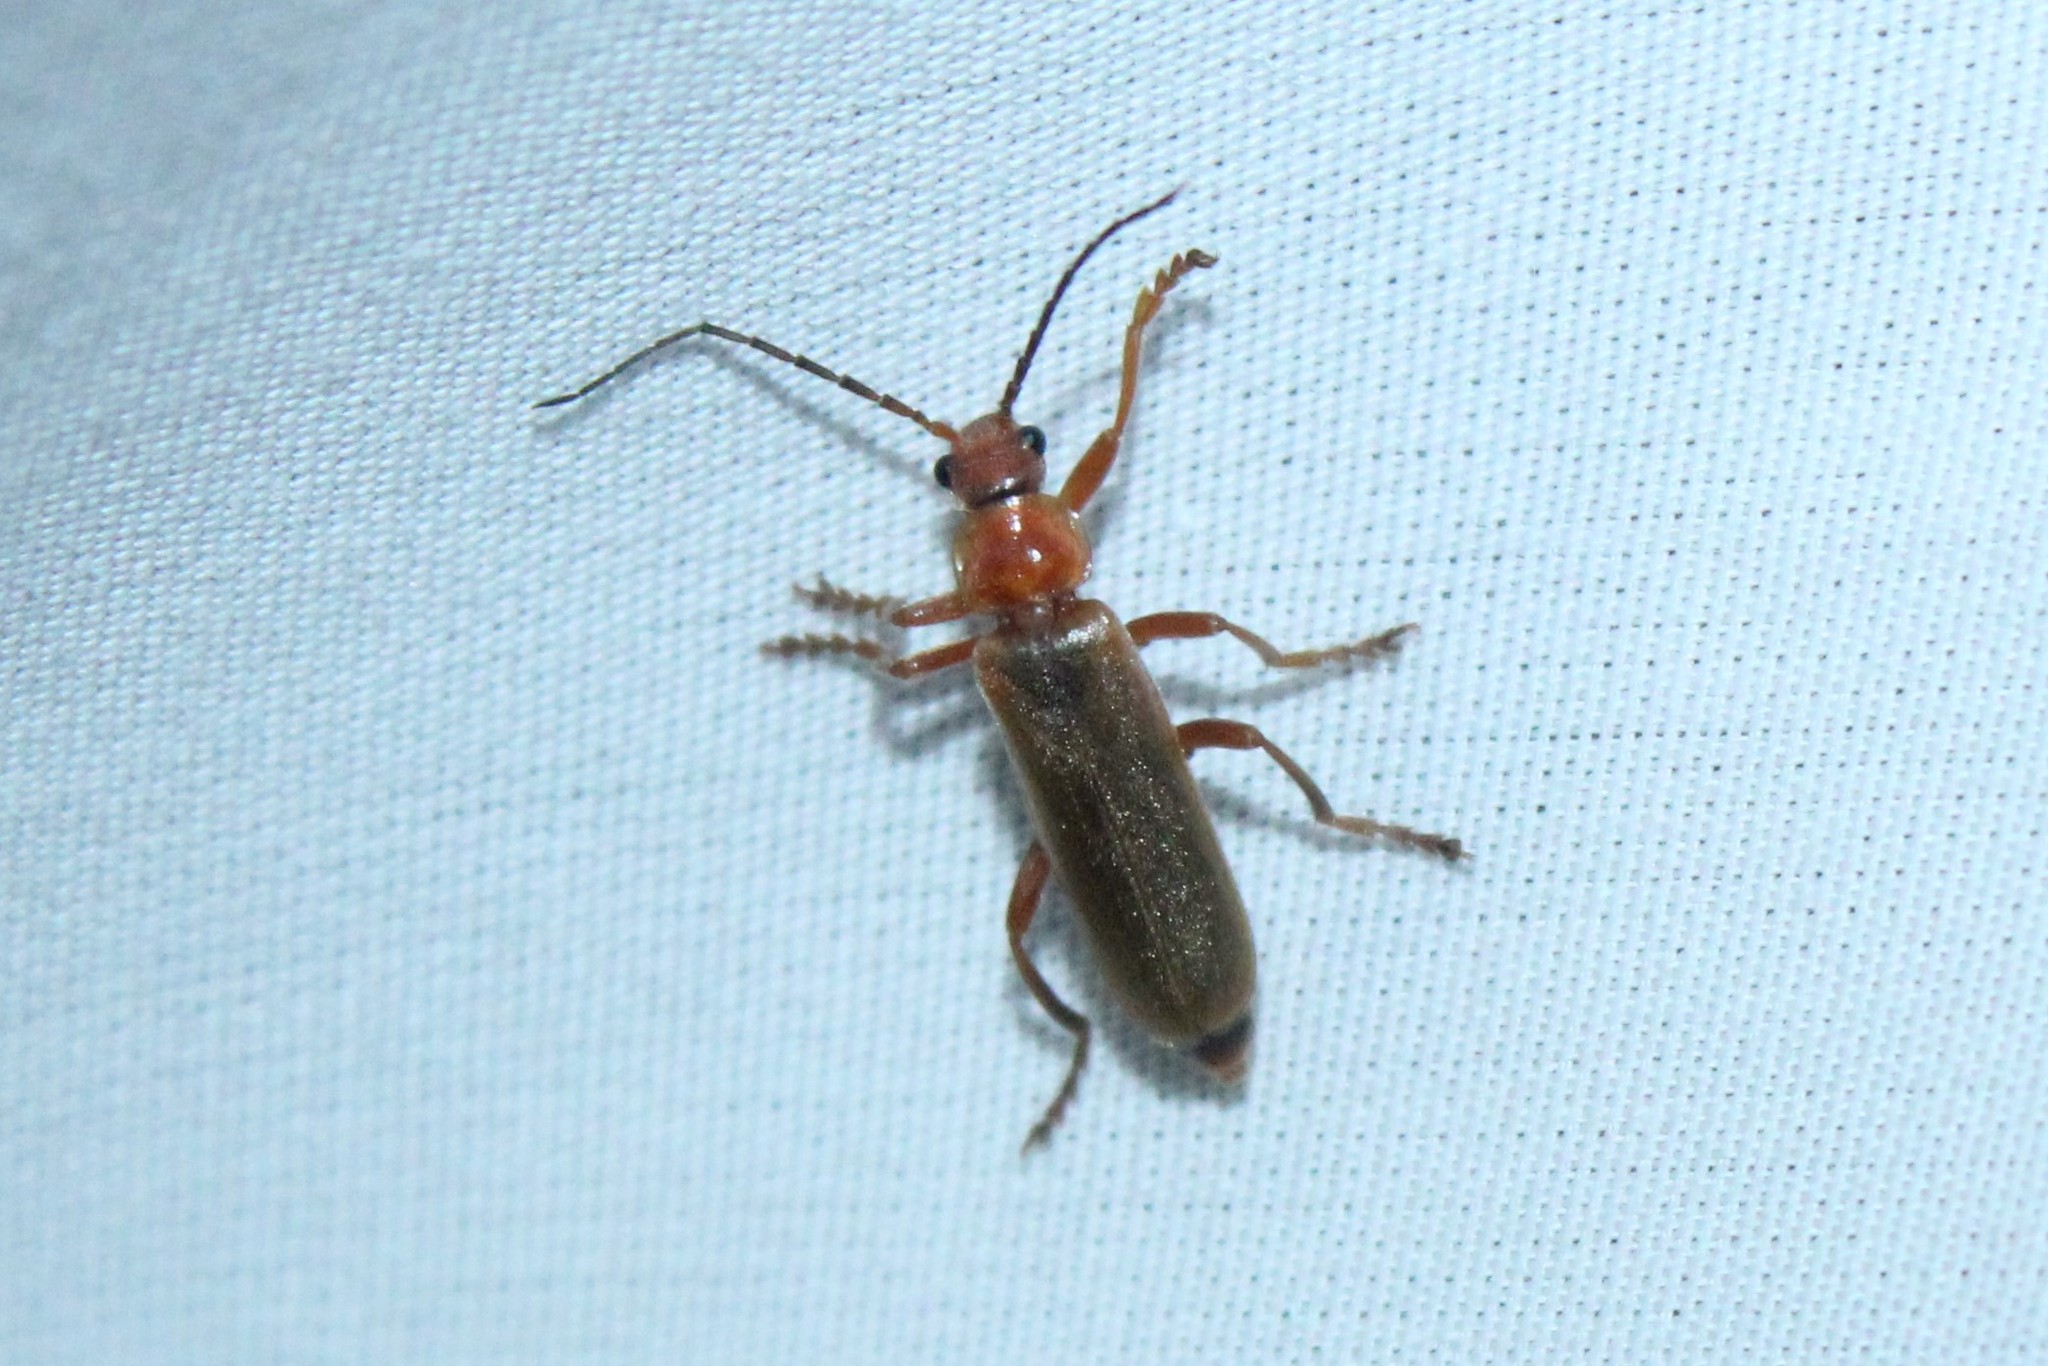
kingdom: Animalia
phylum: Arthropoda
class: Insecta
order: Coleoptera
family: Cantharidae
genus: Cantharis
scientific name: Cantharis rufa
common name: Red-spotted soldier beetle
